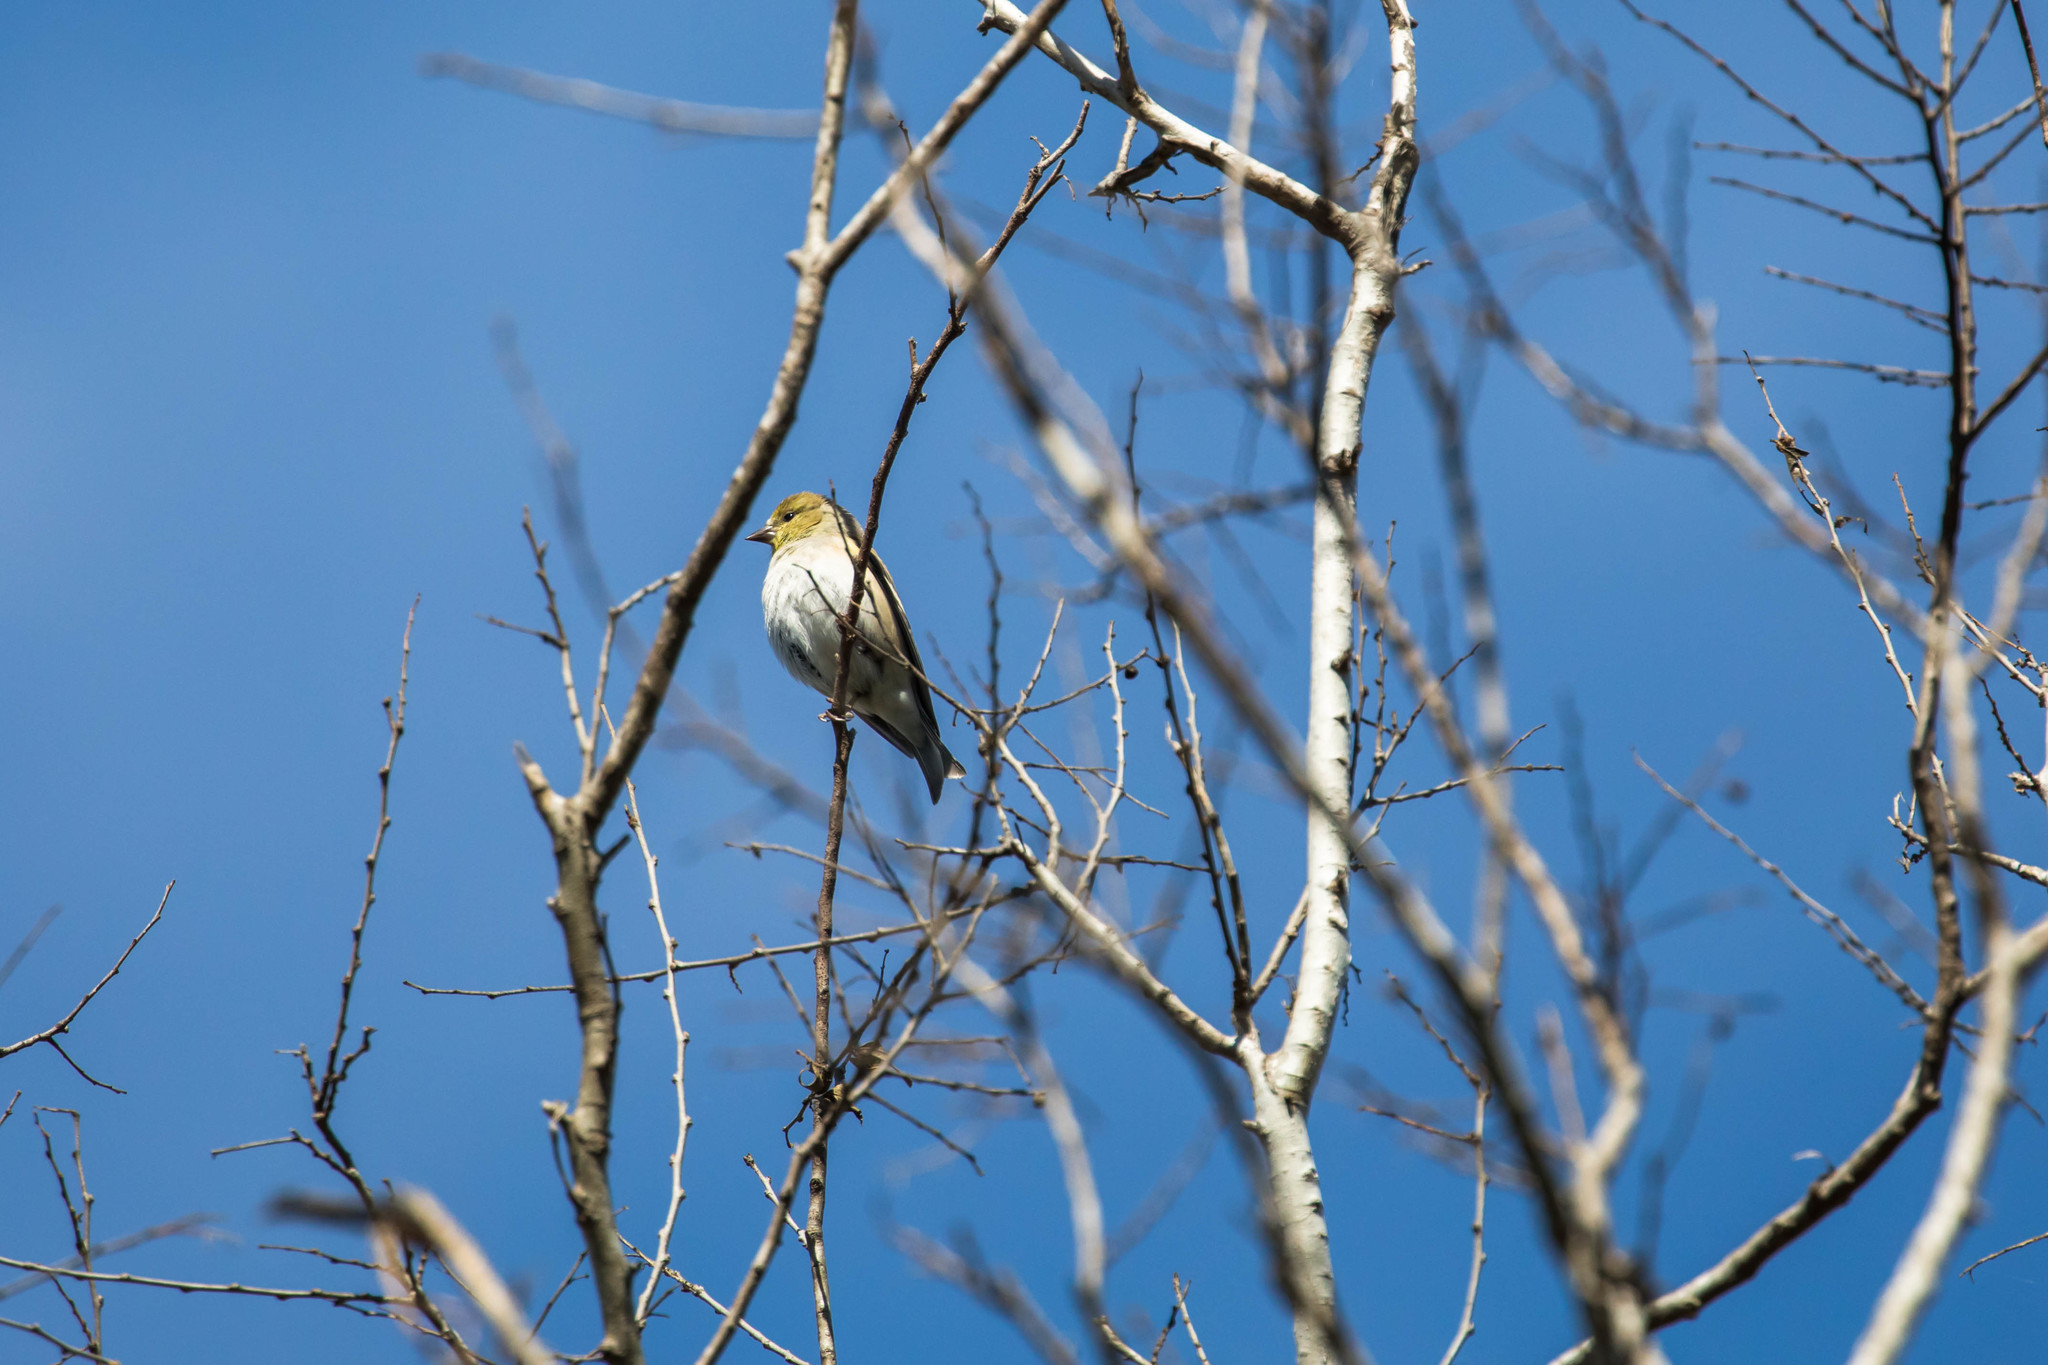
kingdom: Animalia
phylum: Chordata
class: Aves
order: Passeriformes
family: Fringillidae
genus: Spinus
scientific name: Spinus tristis
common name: American goldfinch
